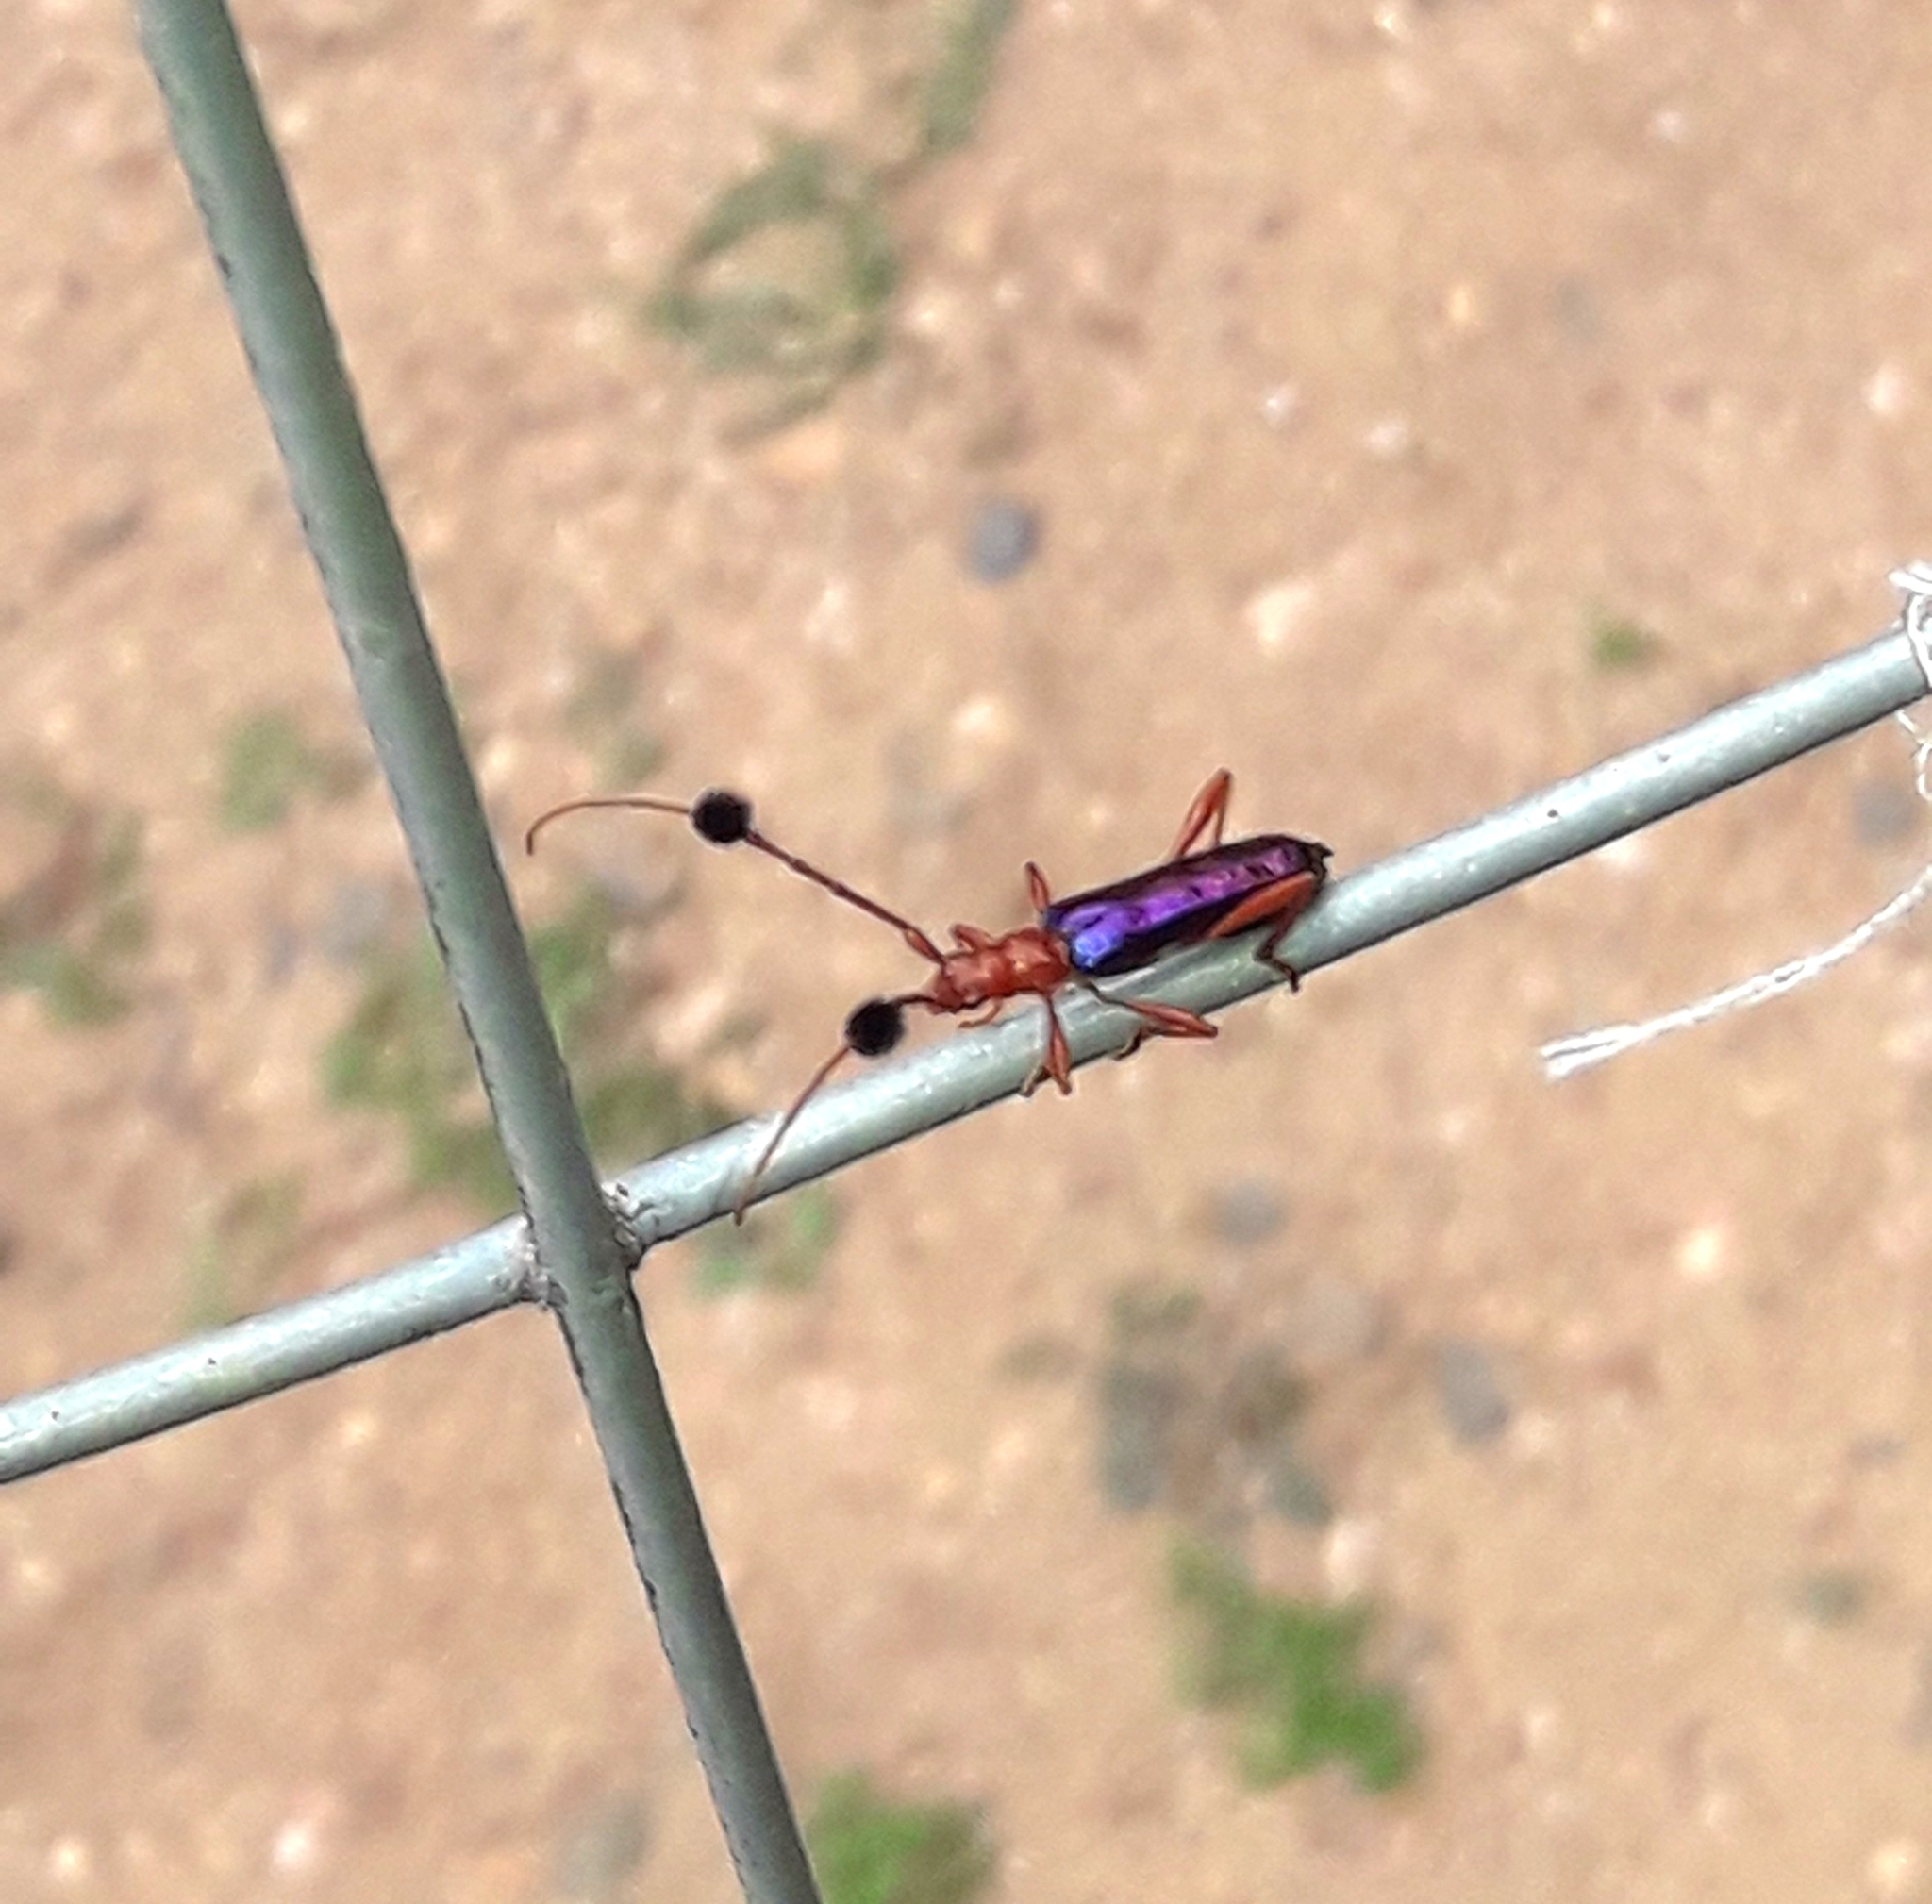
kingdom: Animalia
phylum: Arthropoda
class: Insecta
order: Coleoptera
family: Cerambycidae
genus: Paromoeocerus
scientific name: Paromoeocerus barbicornis
